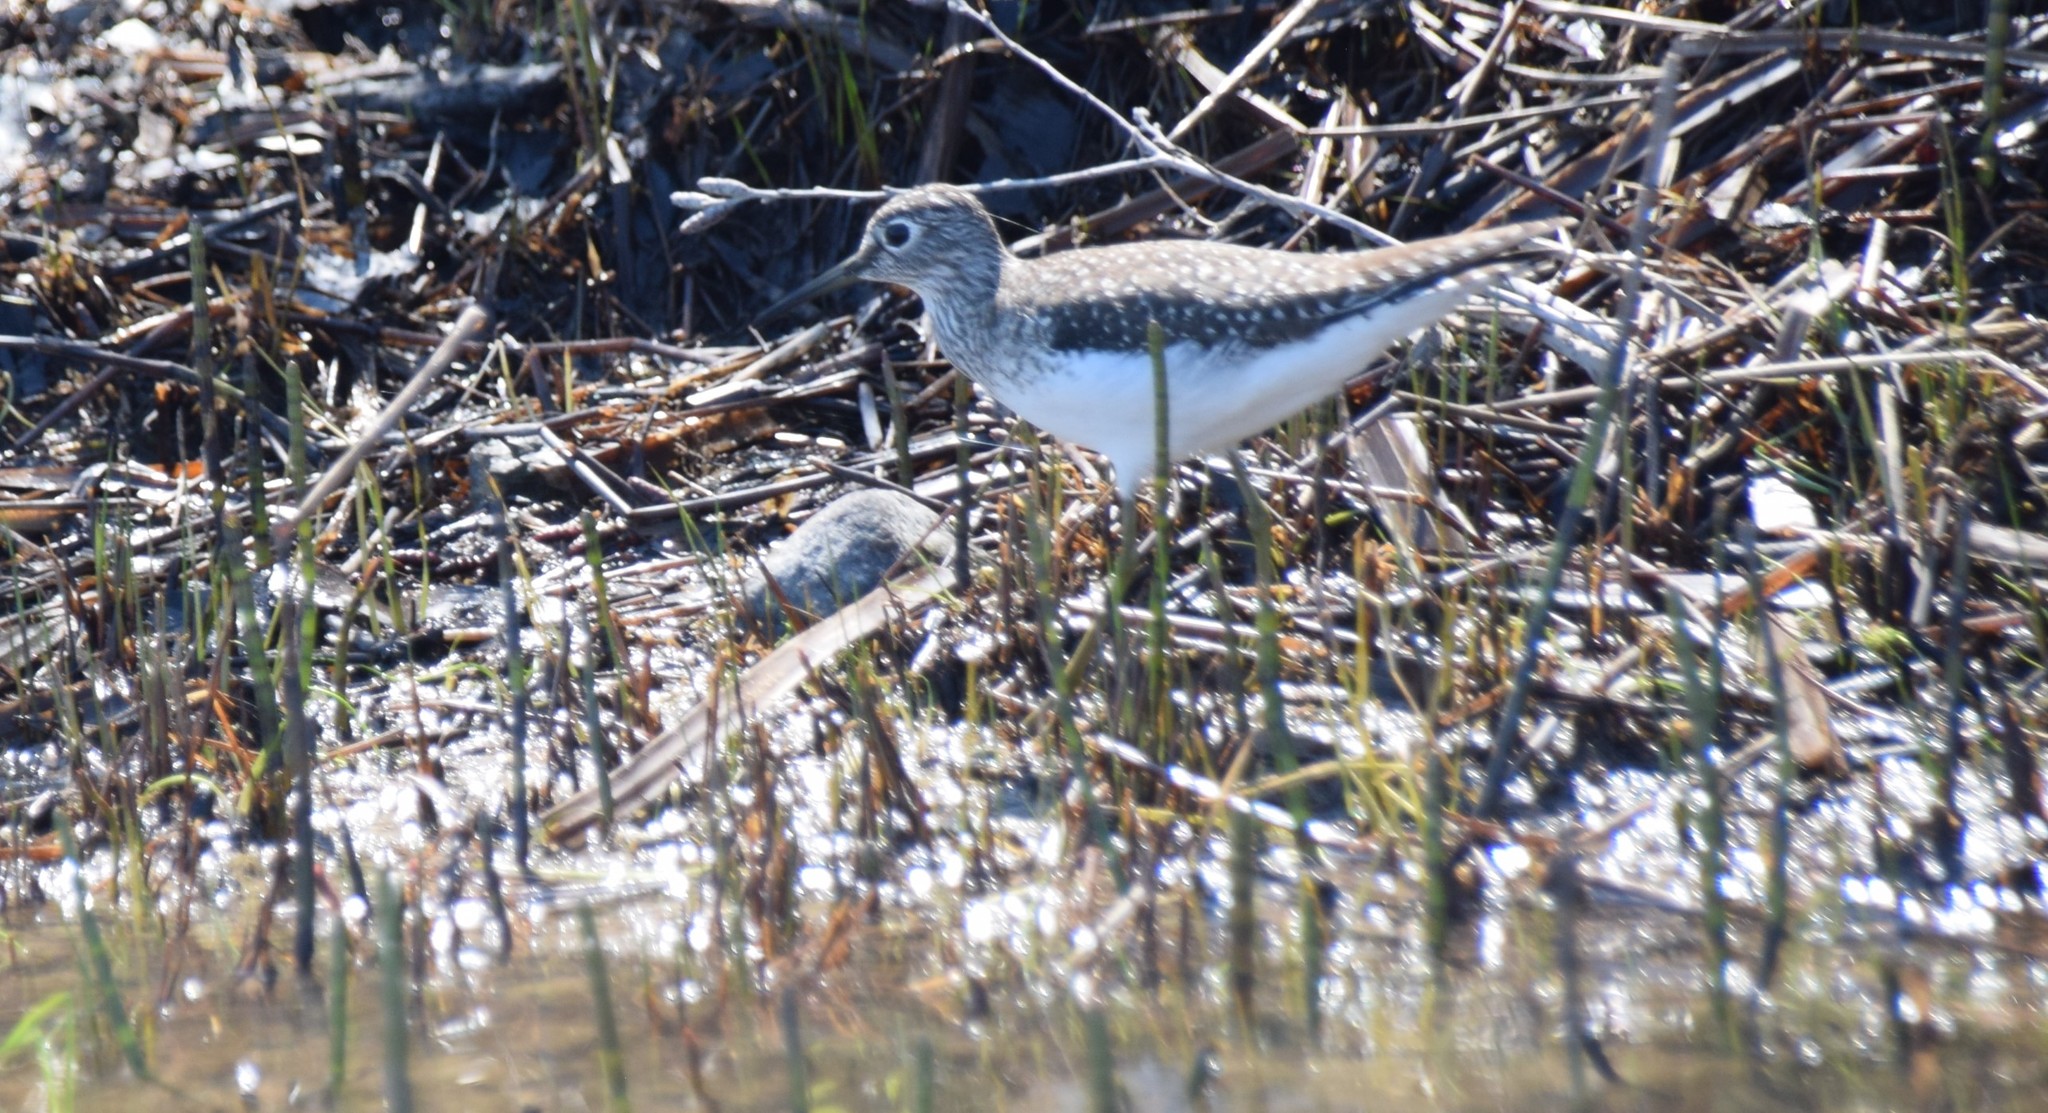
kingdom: Animalia
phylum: Chordata
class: Aves
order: Charadriiformes
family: Scolopacidae
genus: Tringa
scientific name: Tringa solitaria
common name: Solitary sandpiper
